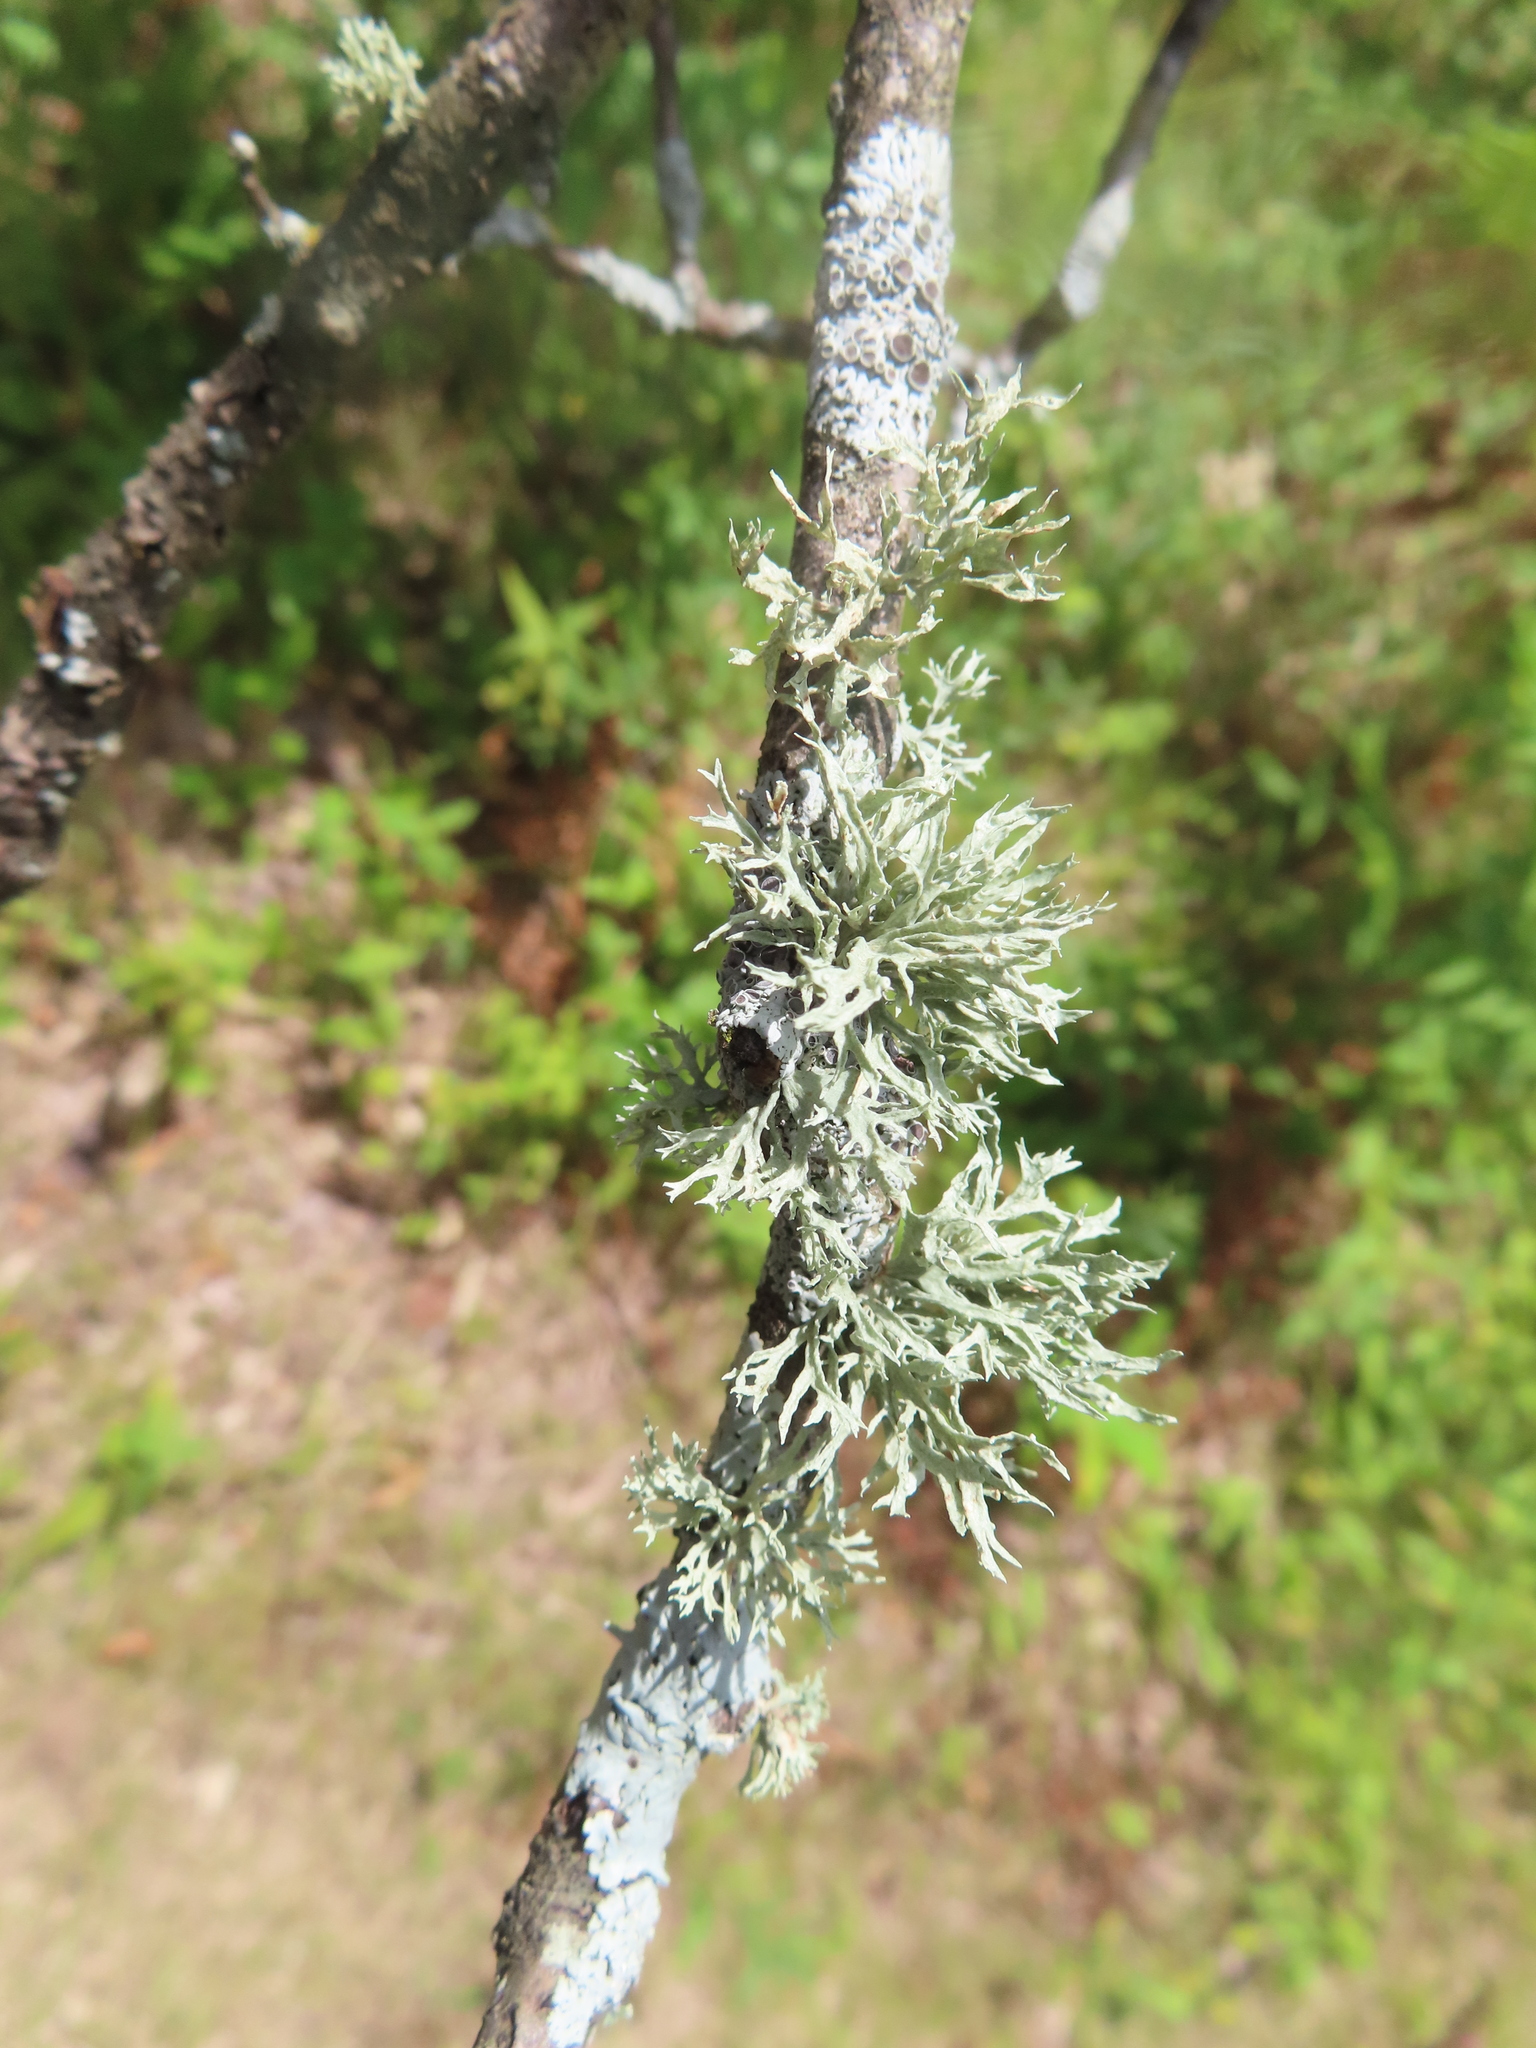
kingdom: Fungi
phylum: Ascomycota
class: Lecanoromycetes
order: Lecanorales
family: Ramalinaceae
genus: Ramalina
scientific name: Ramalina americana
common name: Sinewed bush lichen
